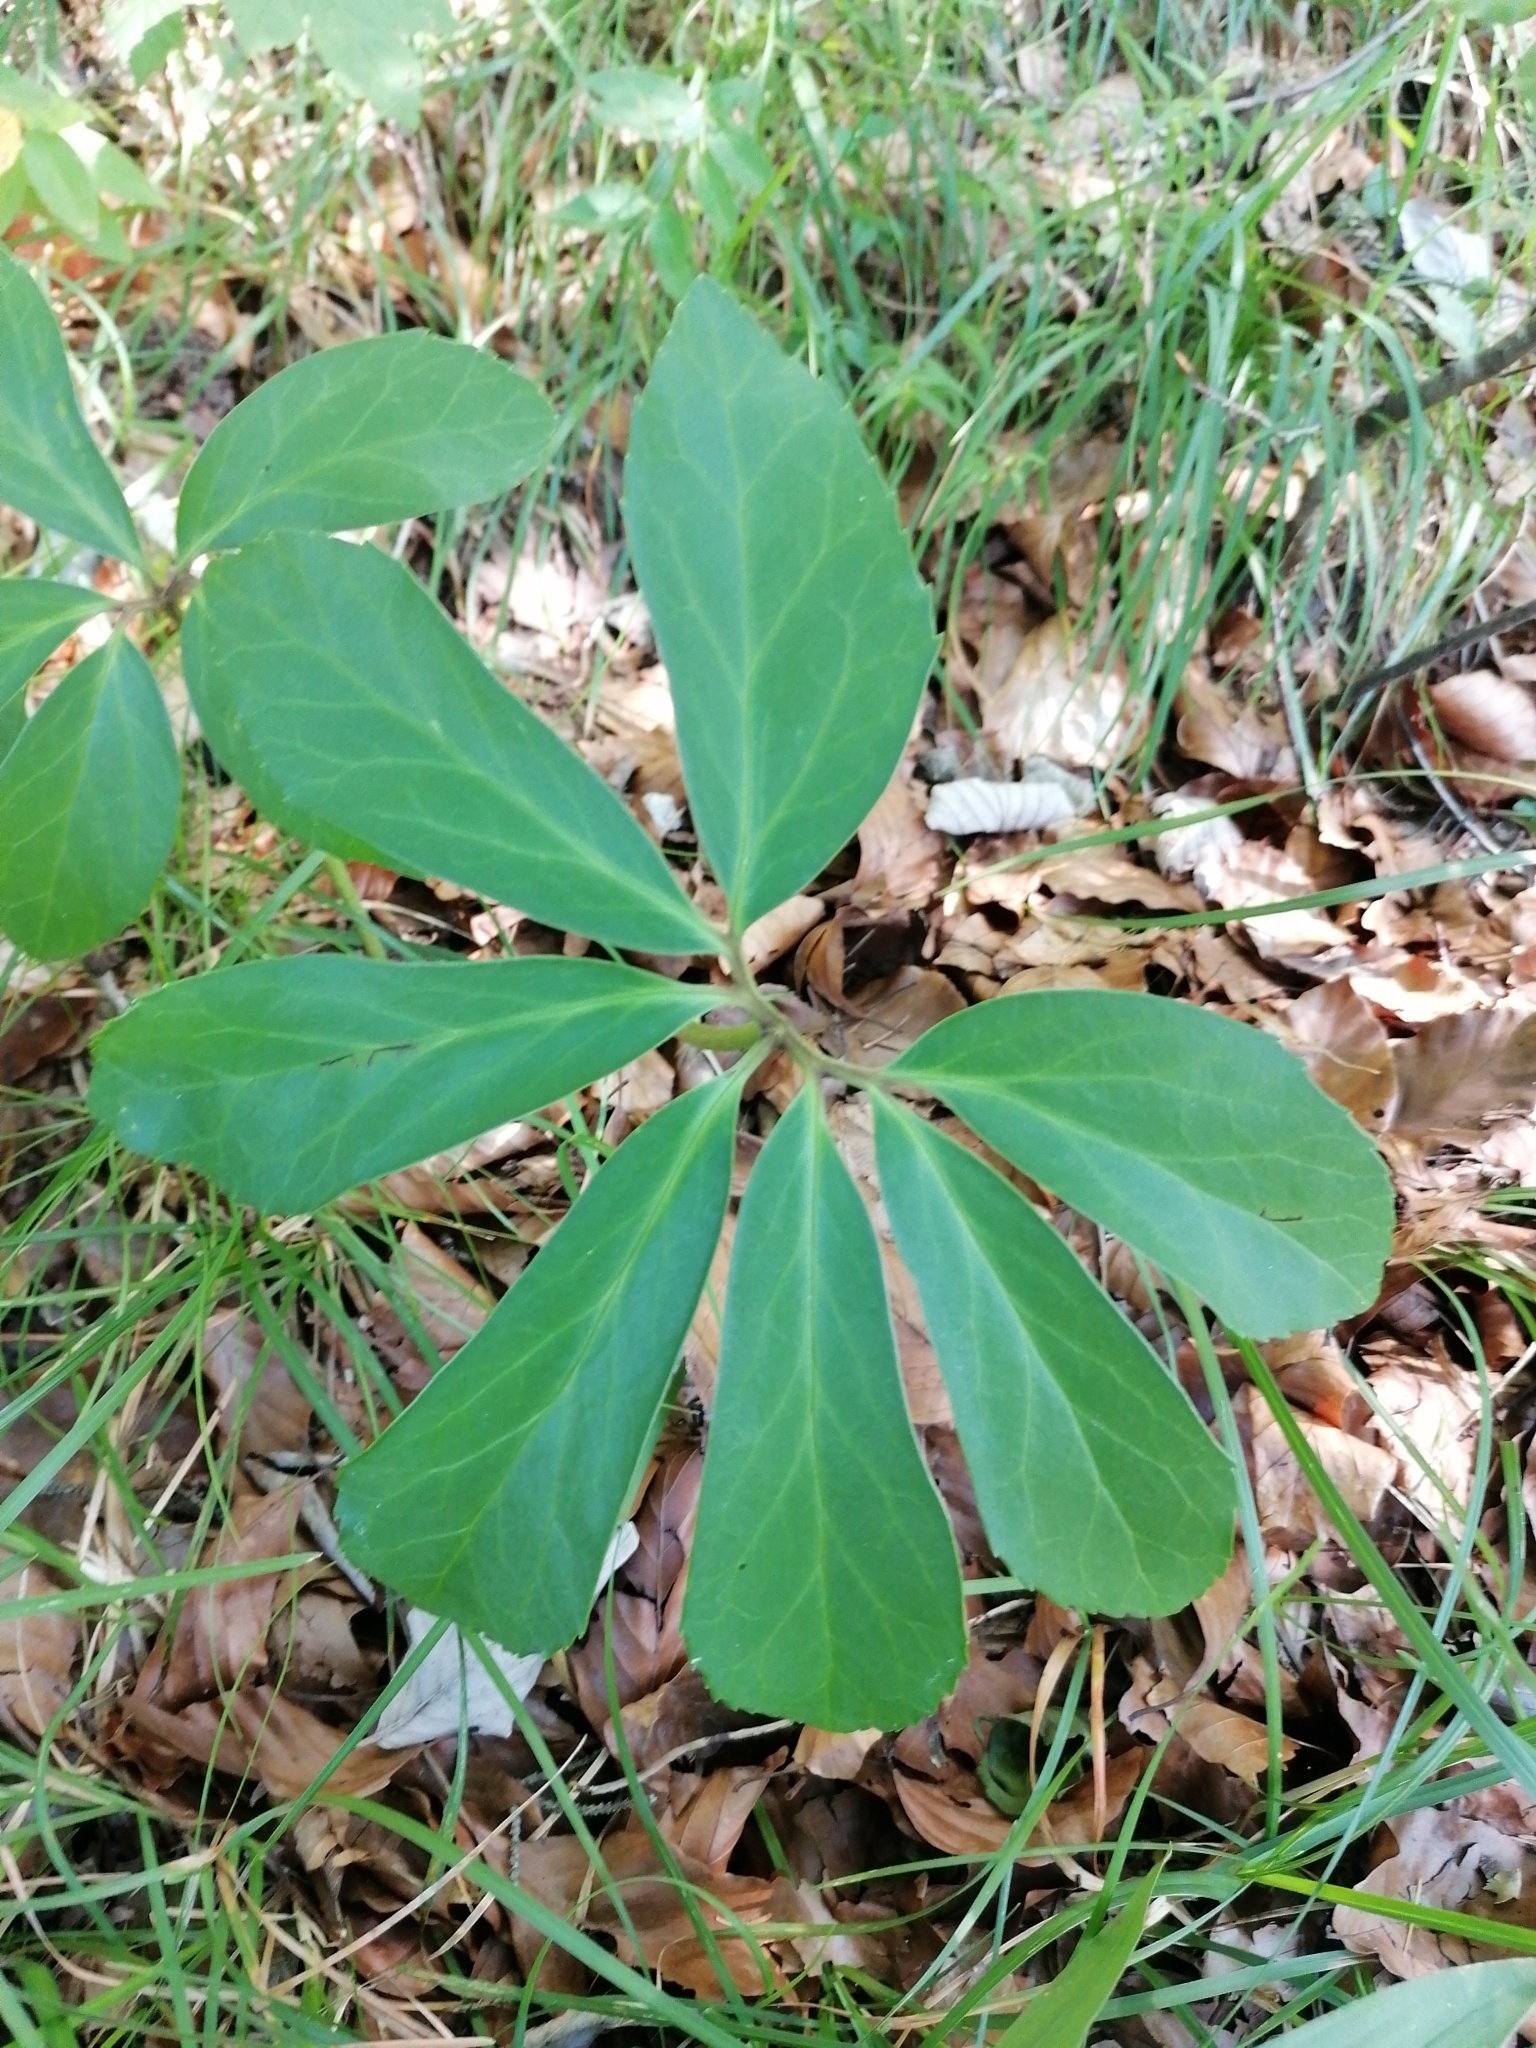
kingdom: Plantae
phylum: Tracheophyta
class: Magnoliopsida
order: Ranunculales
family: Ranunculaceae
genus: Helleborus
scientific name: Helleborus niger
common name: Black hellebore
